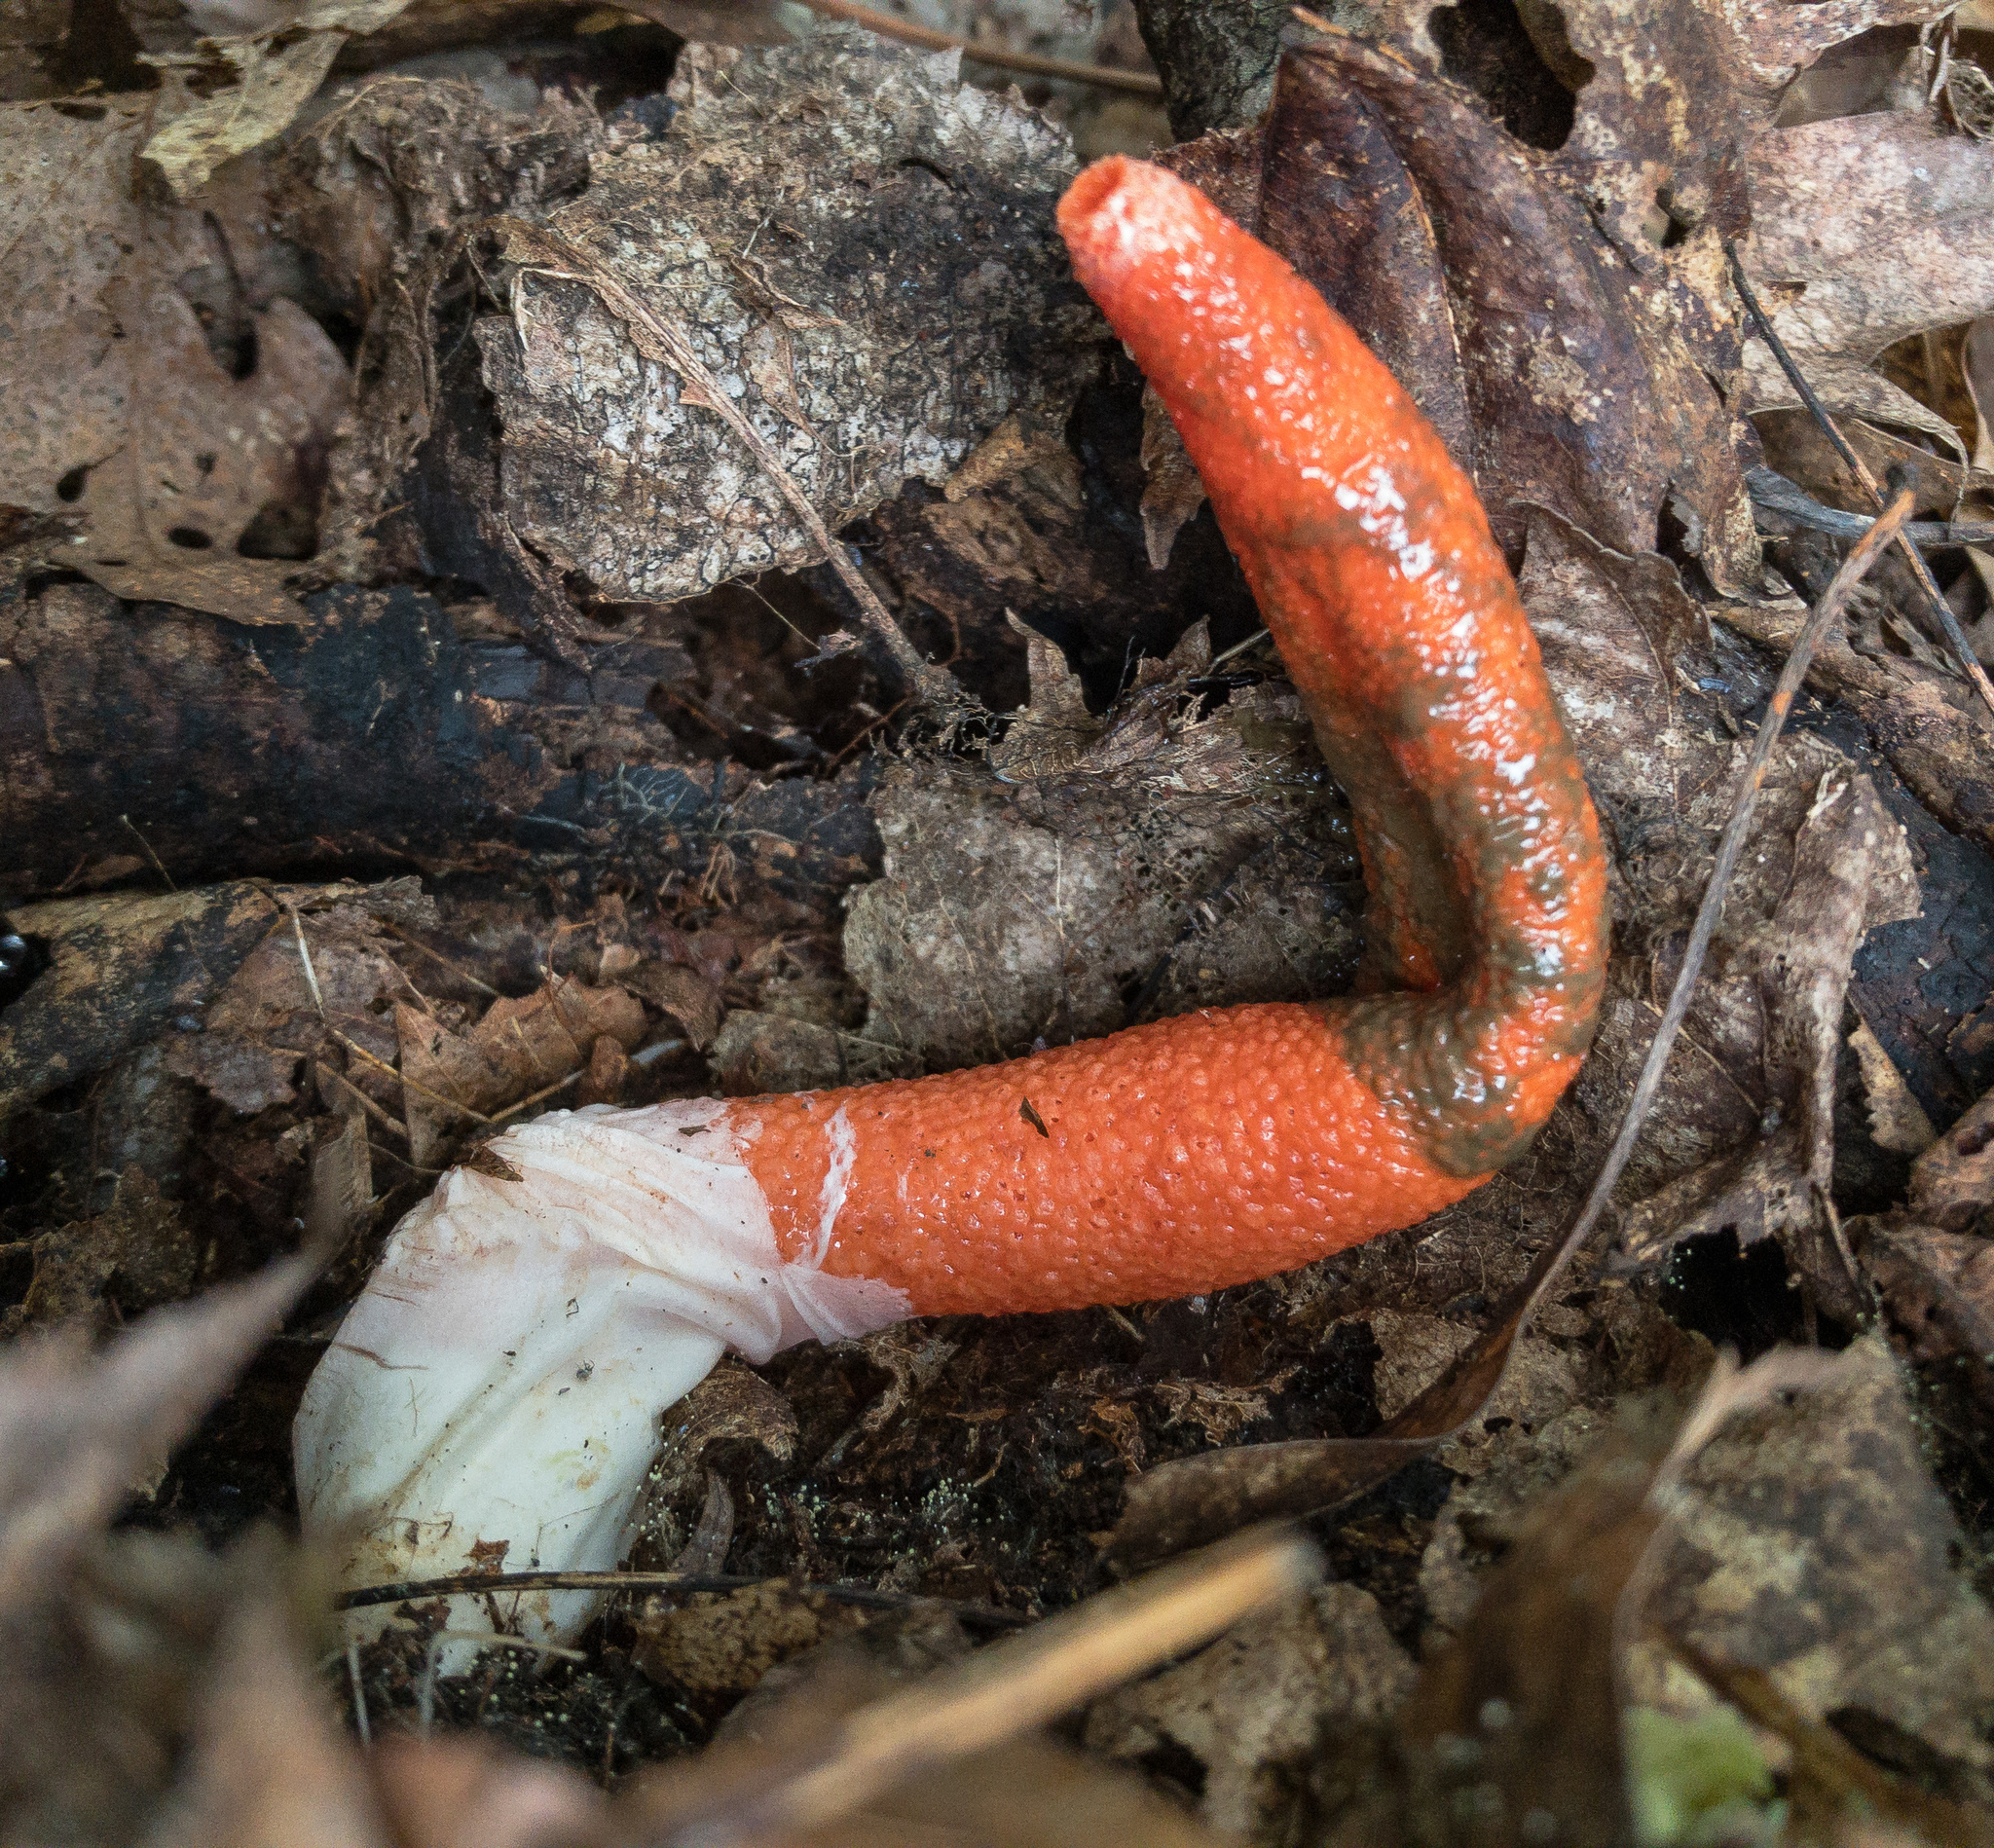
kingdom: Fungi
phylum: Basidiomycota
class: Agaricomycetes
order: Phallales
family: Phallaceae
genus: Mutinus
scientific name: Mutinus elegans
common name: Devil's dipstick
